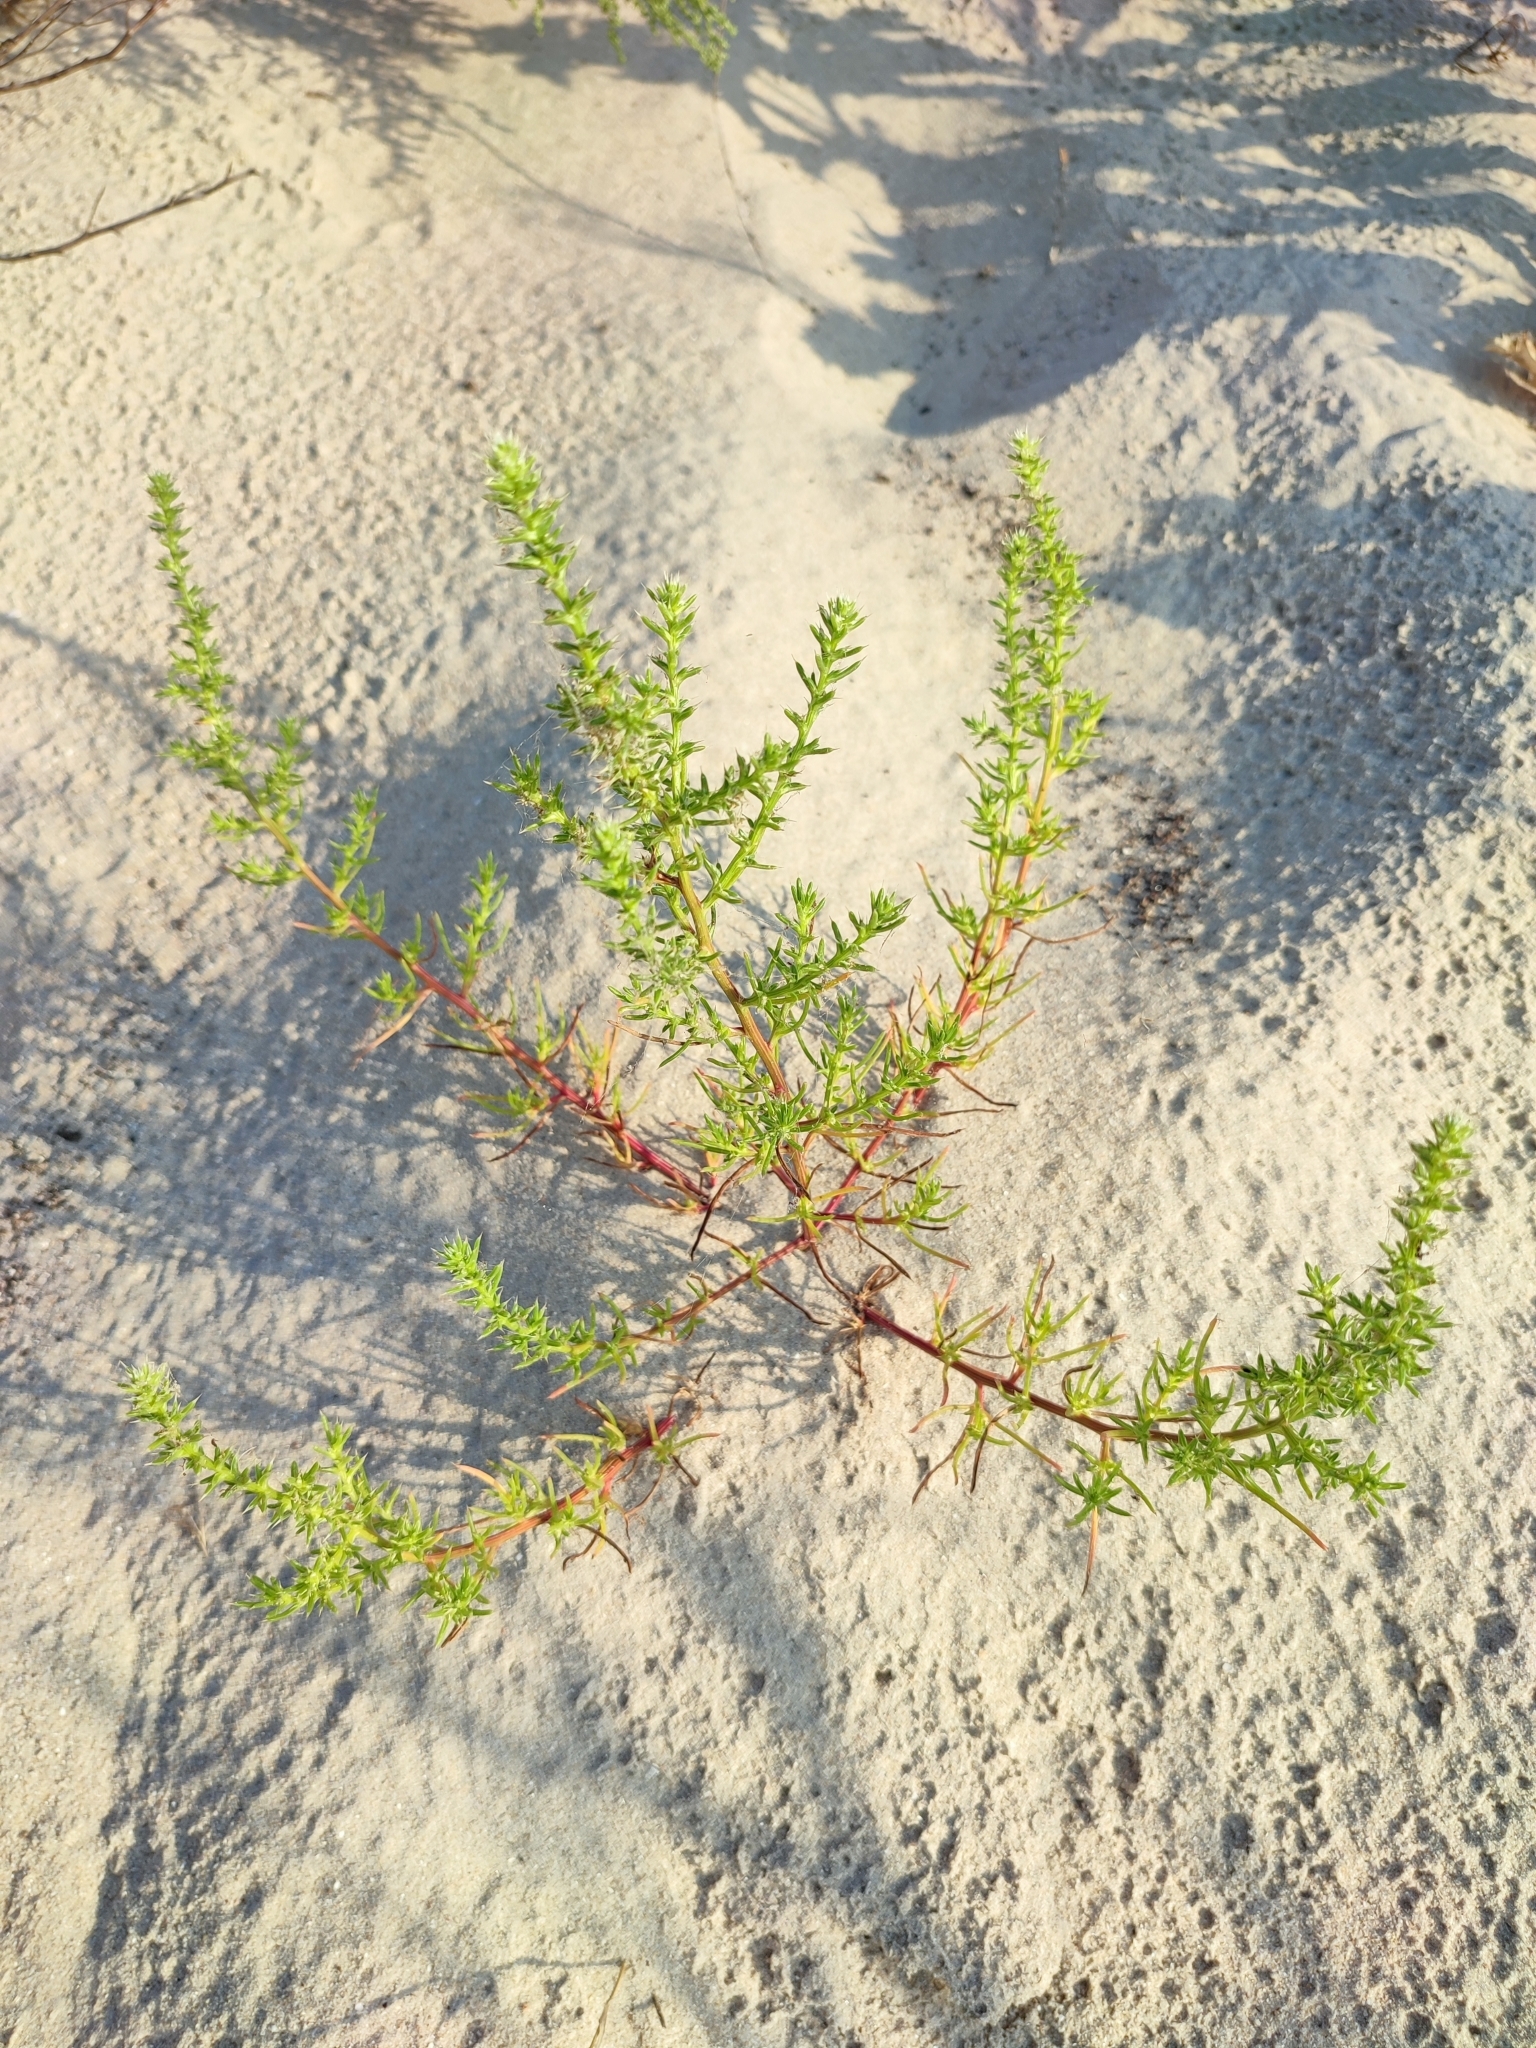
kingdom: Plantae
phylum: Tracheophyta
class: Magnoliopsida
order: Caryophyllales
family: Amaranthaceae
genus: Salsola
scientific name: Salsola squarrosa
